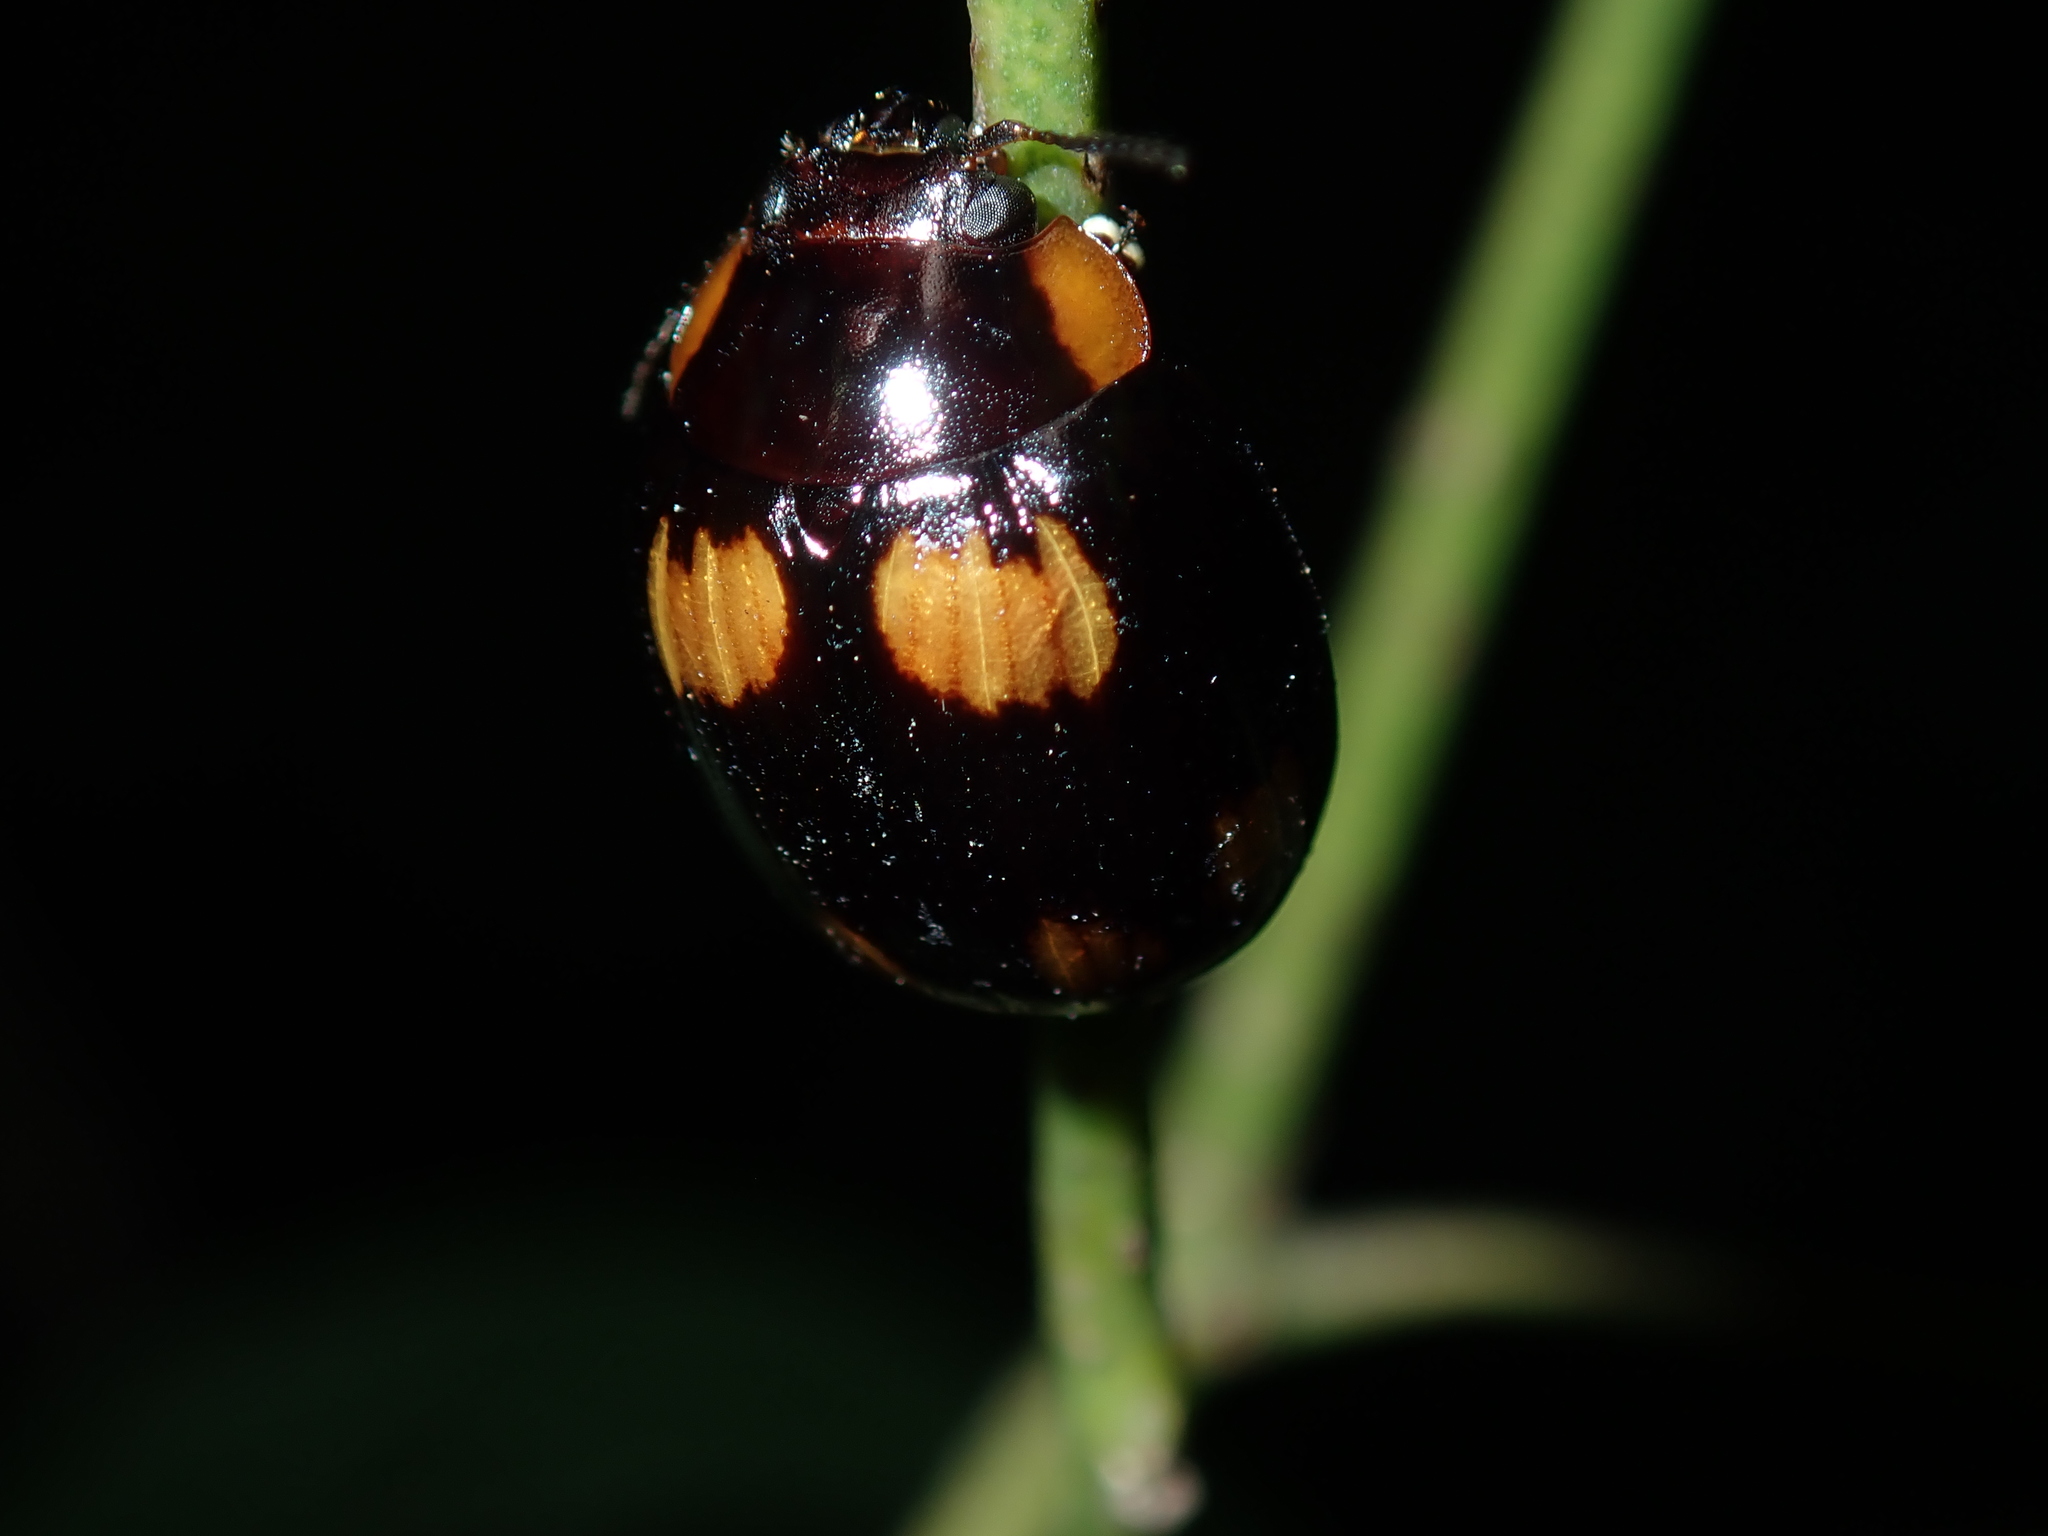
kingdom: Animalia
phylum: Arthropoda
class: Insecta
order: Coleoptera
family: Chrysomelidae
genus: Paropsisterna
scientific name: Paropsisterna
